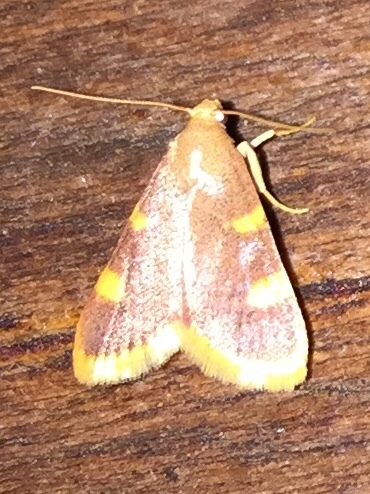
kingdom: Animalia
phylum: Arthropoda
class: Insecta
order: Lepidoptera
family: Pyralidae
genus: Hypsopygia
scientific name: Hypsopygia costalis
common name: Gold triangle
